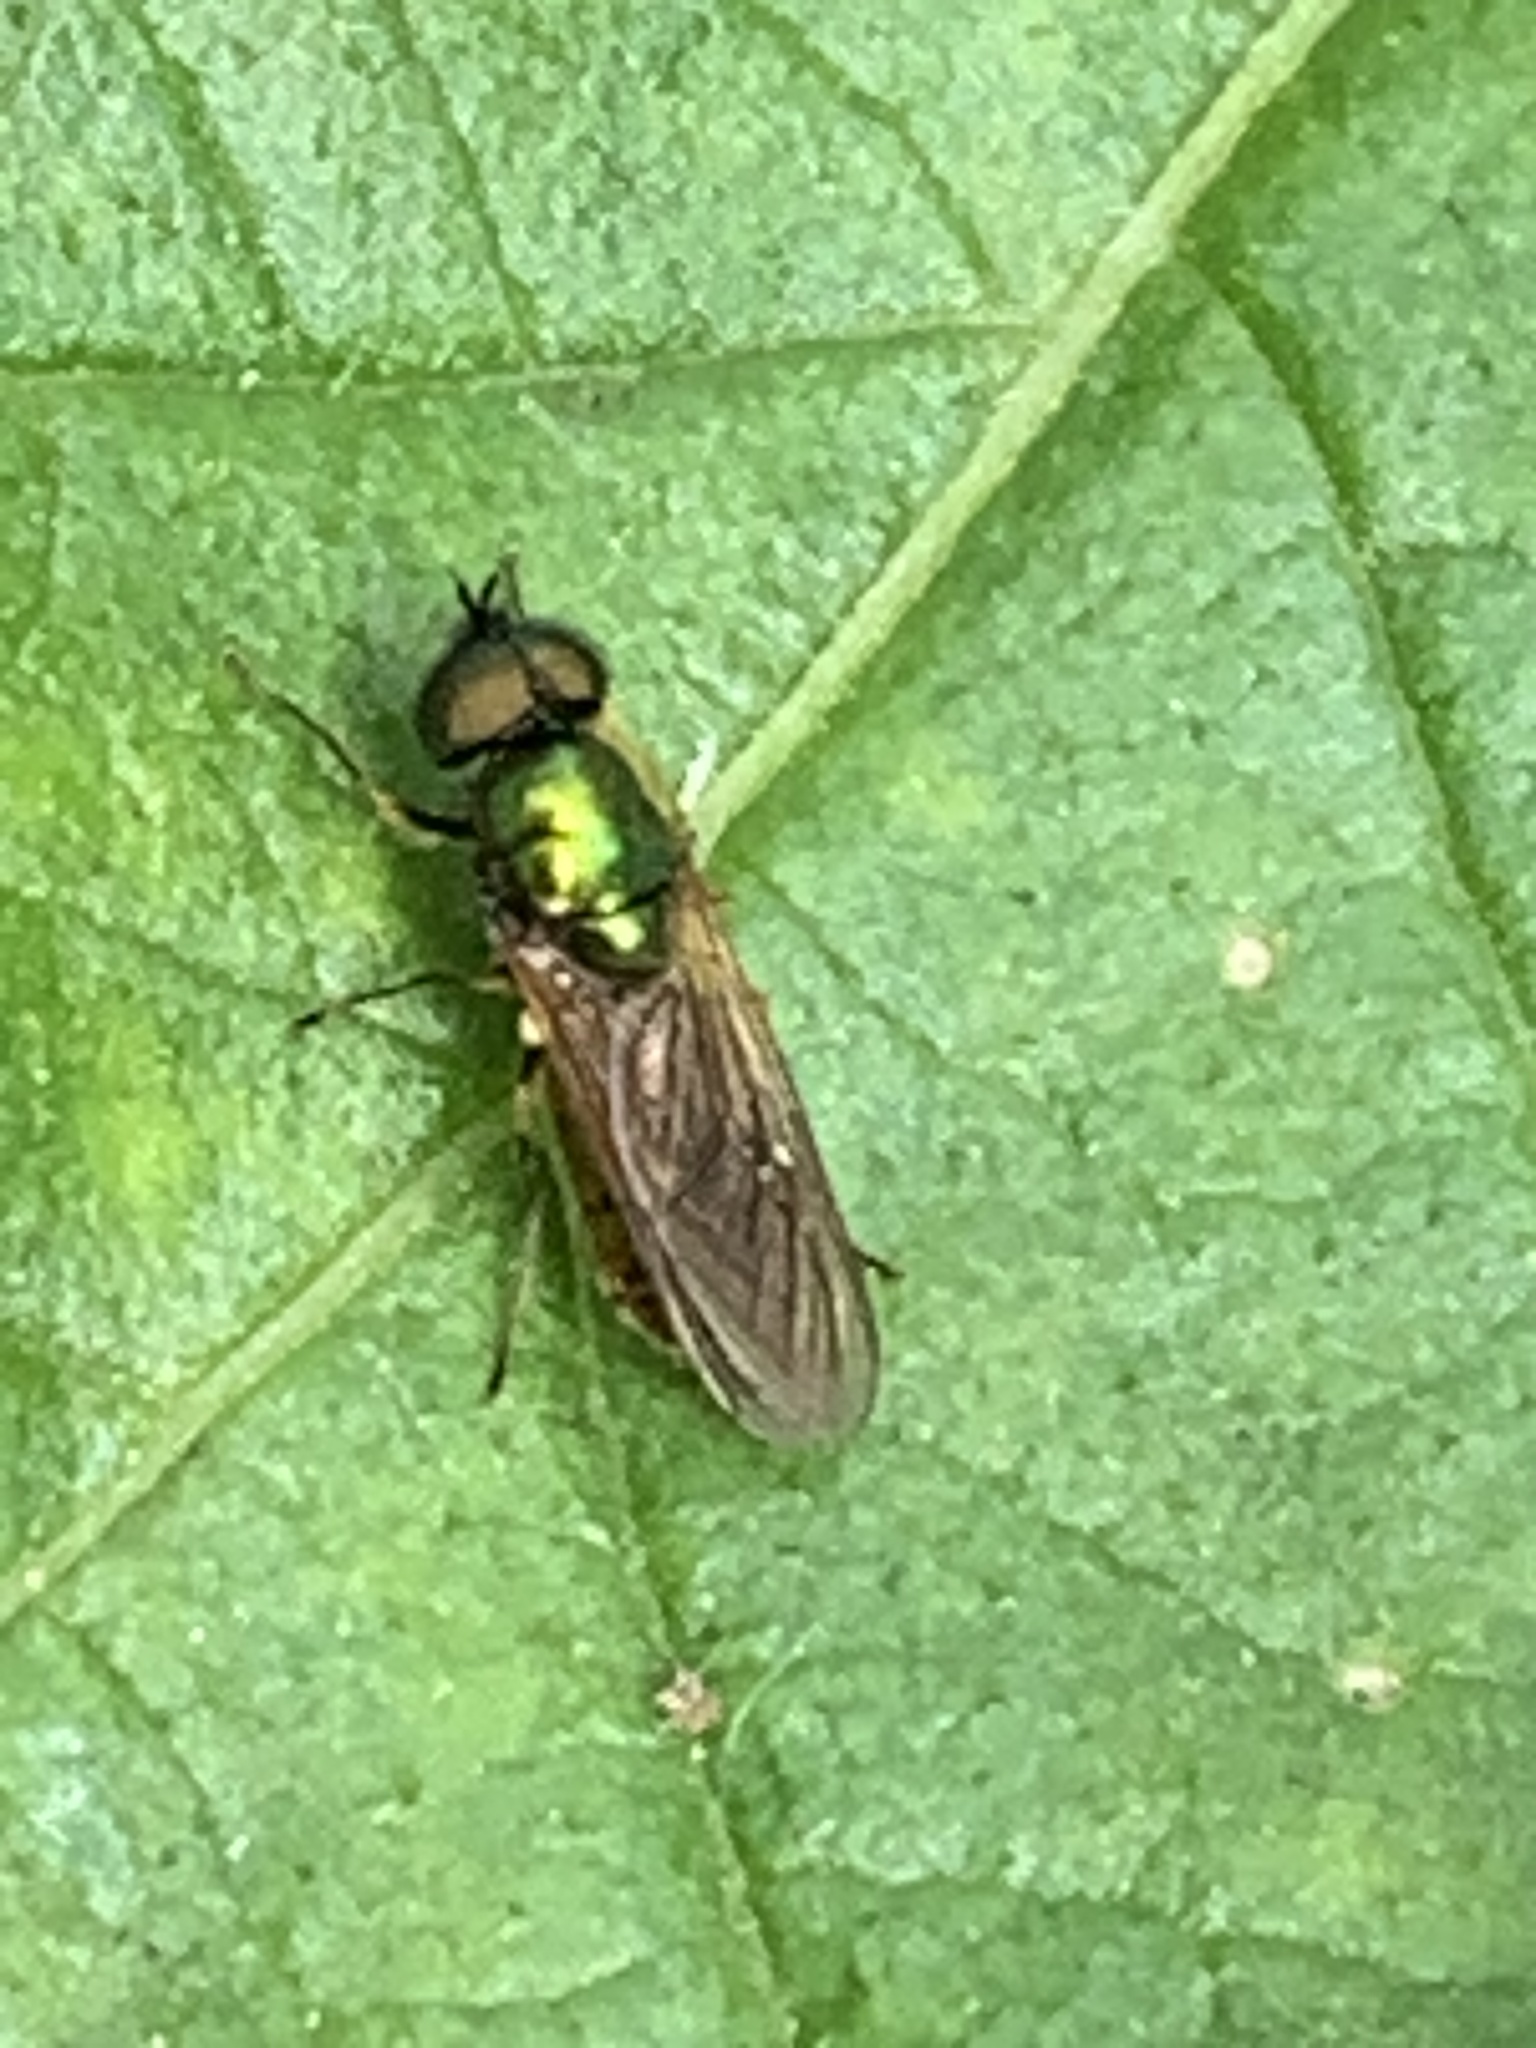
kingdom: Animalia
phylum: Arthropoda
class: Insecta
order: Diptera
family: Stratiomyidae
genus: Chloromyia
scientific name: Chloromyia formosa
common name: Soldier fly
